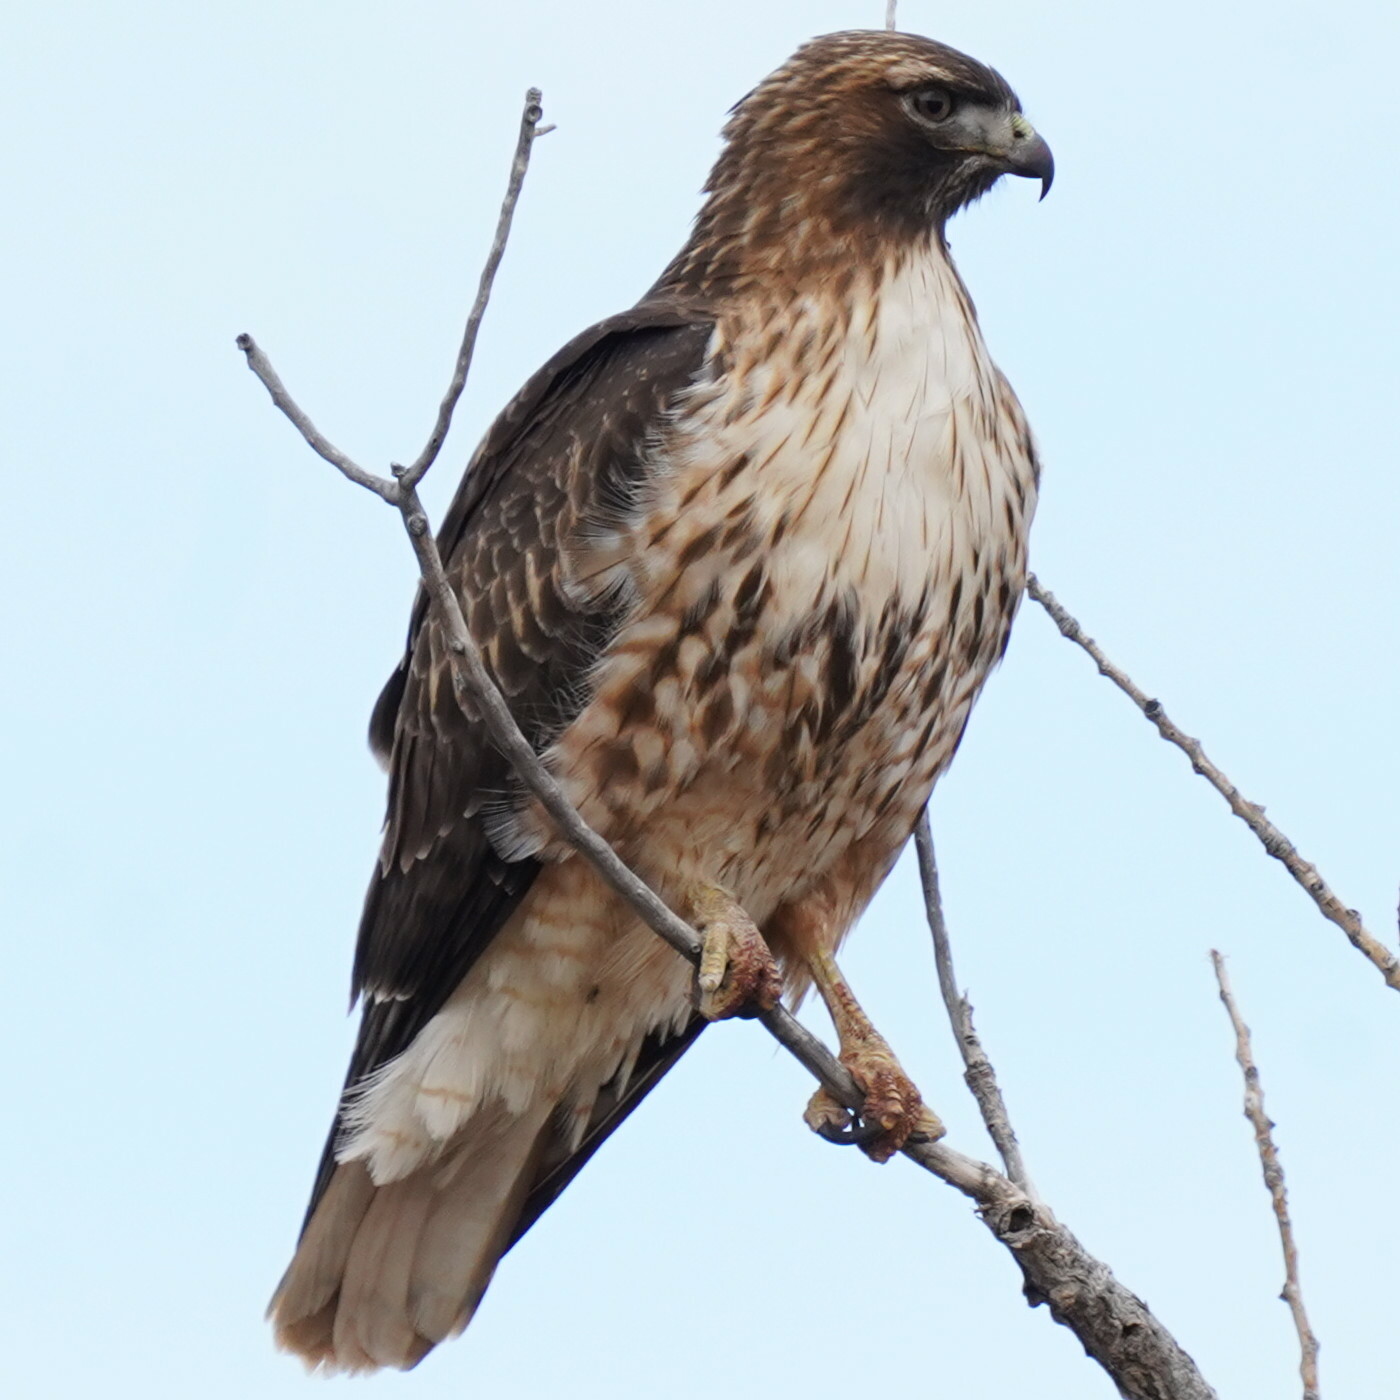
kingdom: Animalia
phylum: Chordata
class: Aves
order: Accipitriformes
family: Accipitridae
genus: Buteo
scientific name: Buteo jamaicensis
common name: Red-tailed hawk
